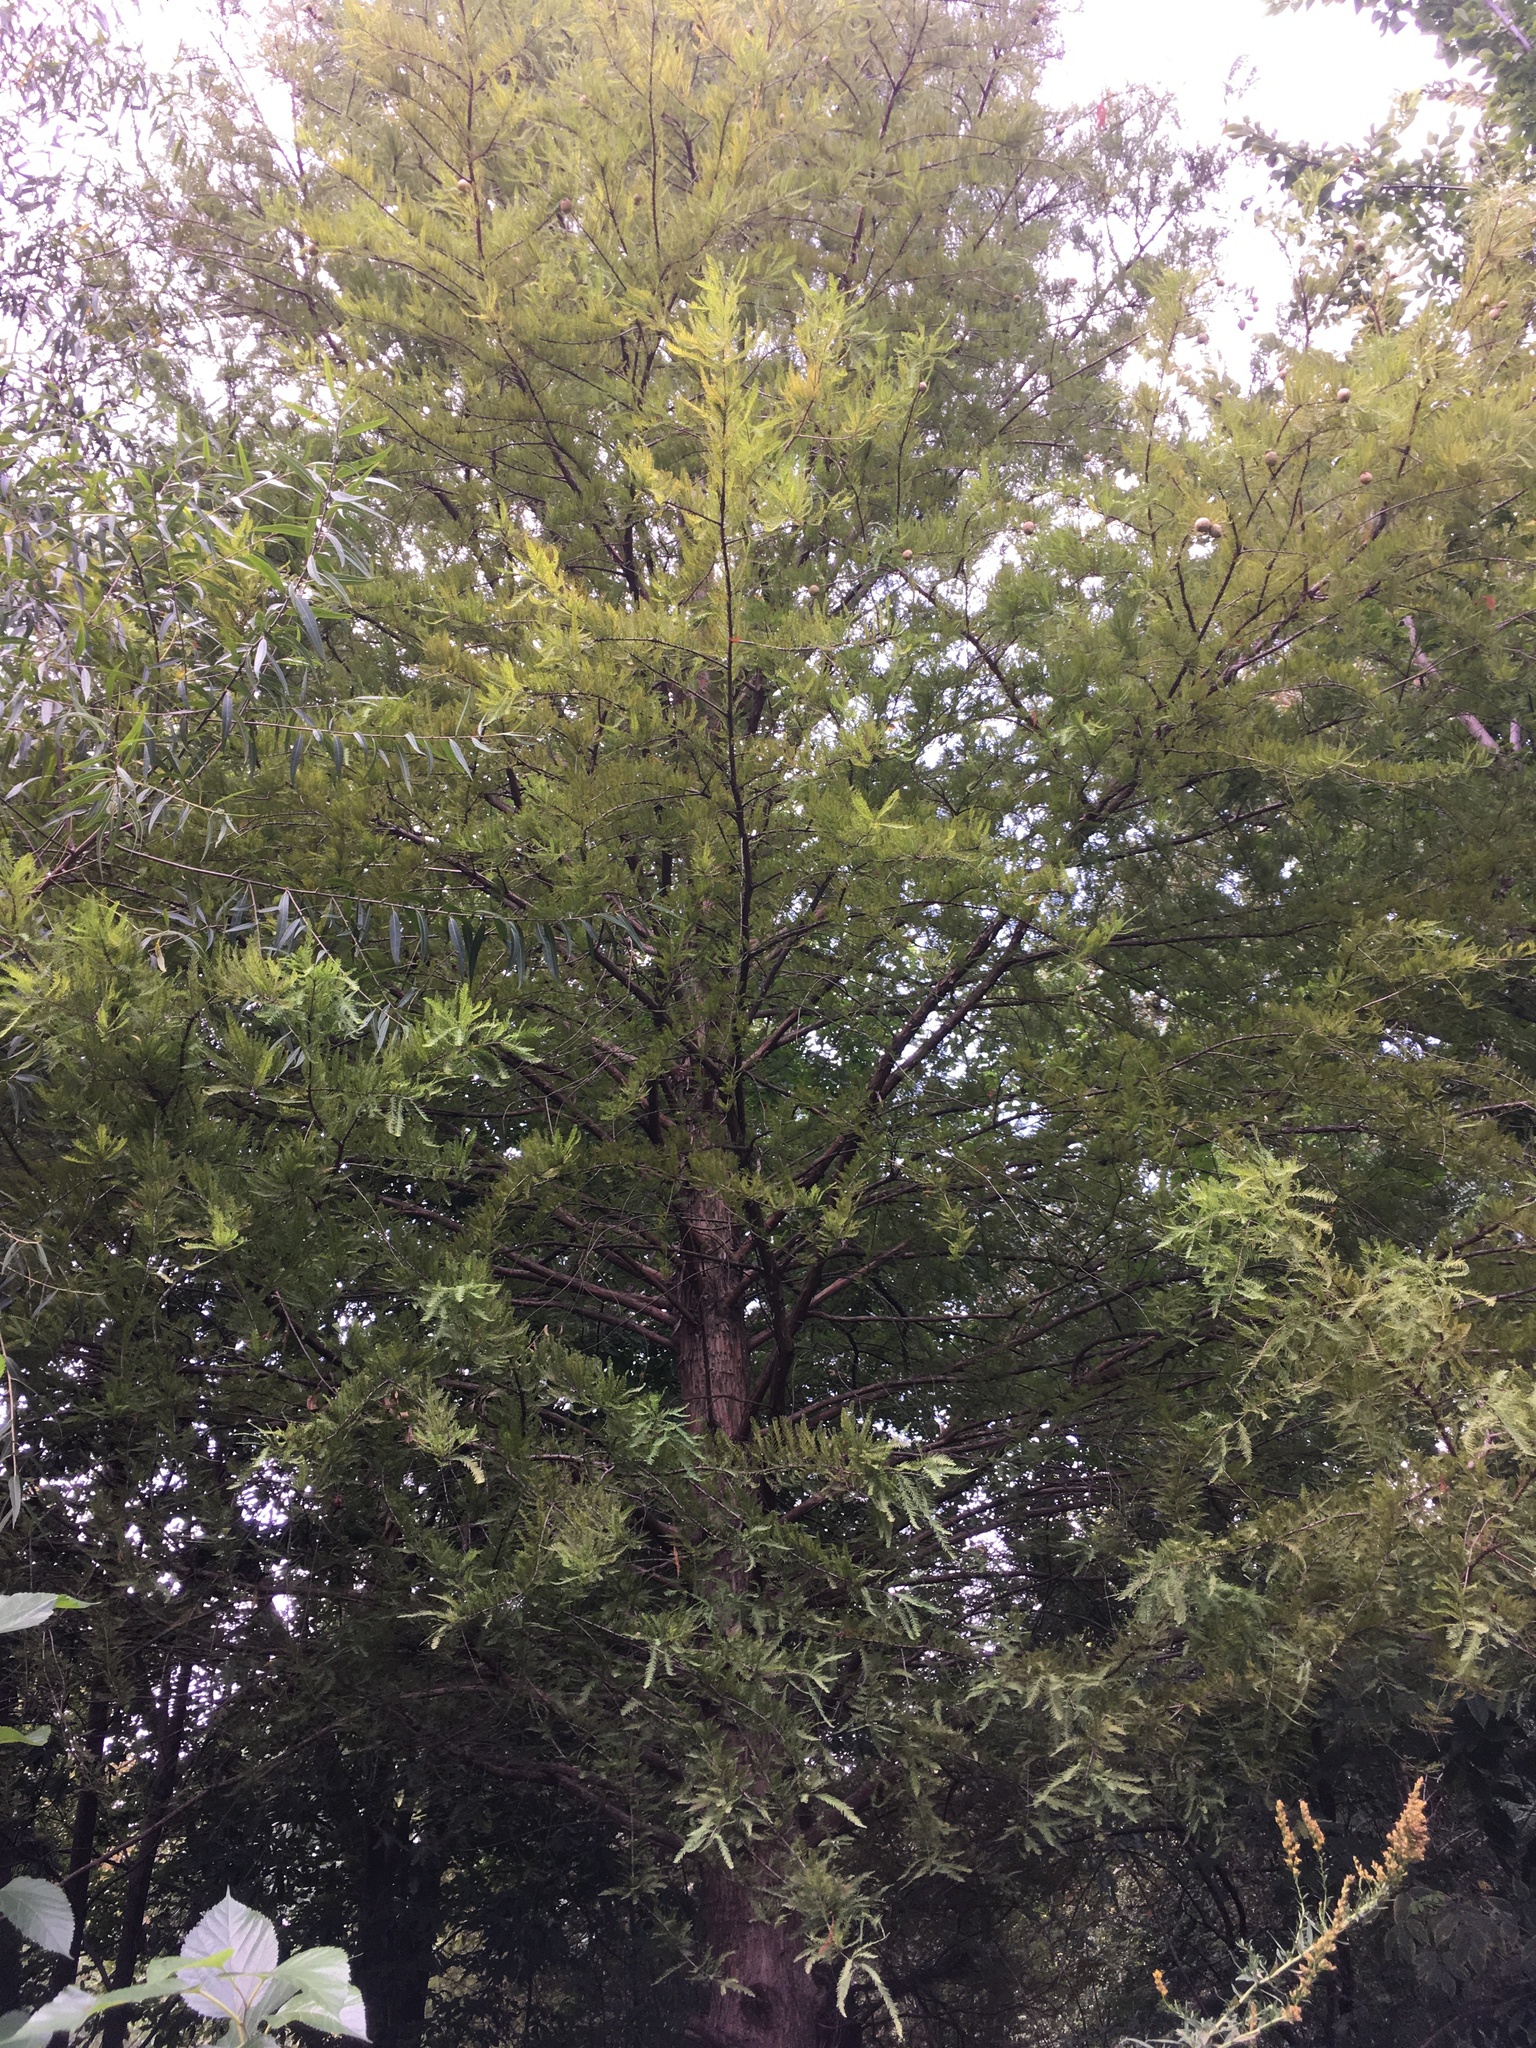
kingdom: Plantae
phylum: Tracheophyta
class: Pinopsida
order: Pinales
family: Cupressaceae
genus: Taxodium
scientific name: Taxodium distichum
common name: Bald cypress
